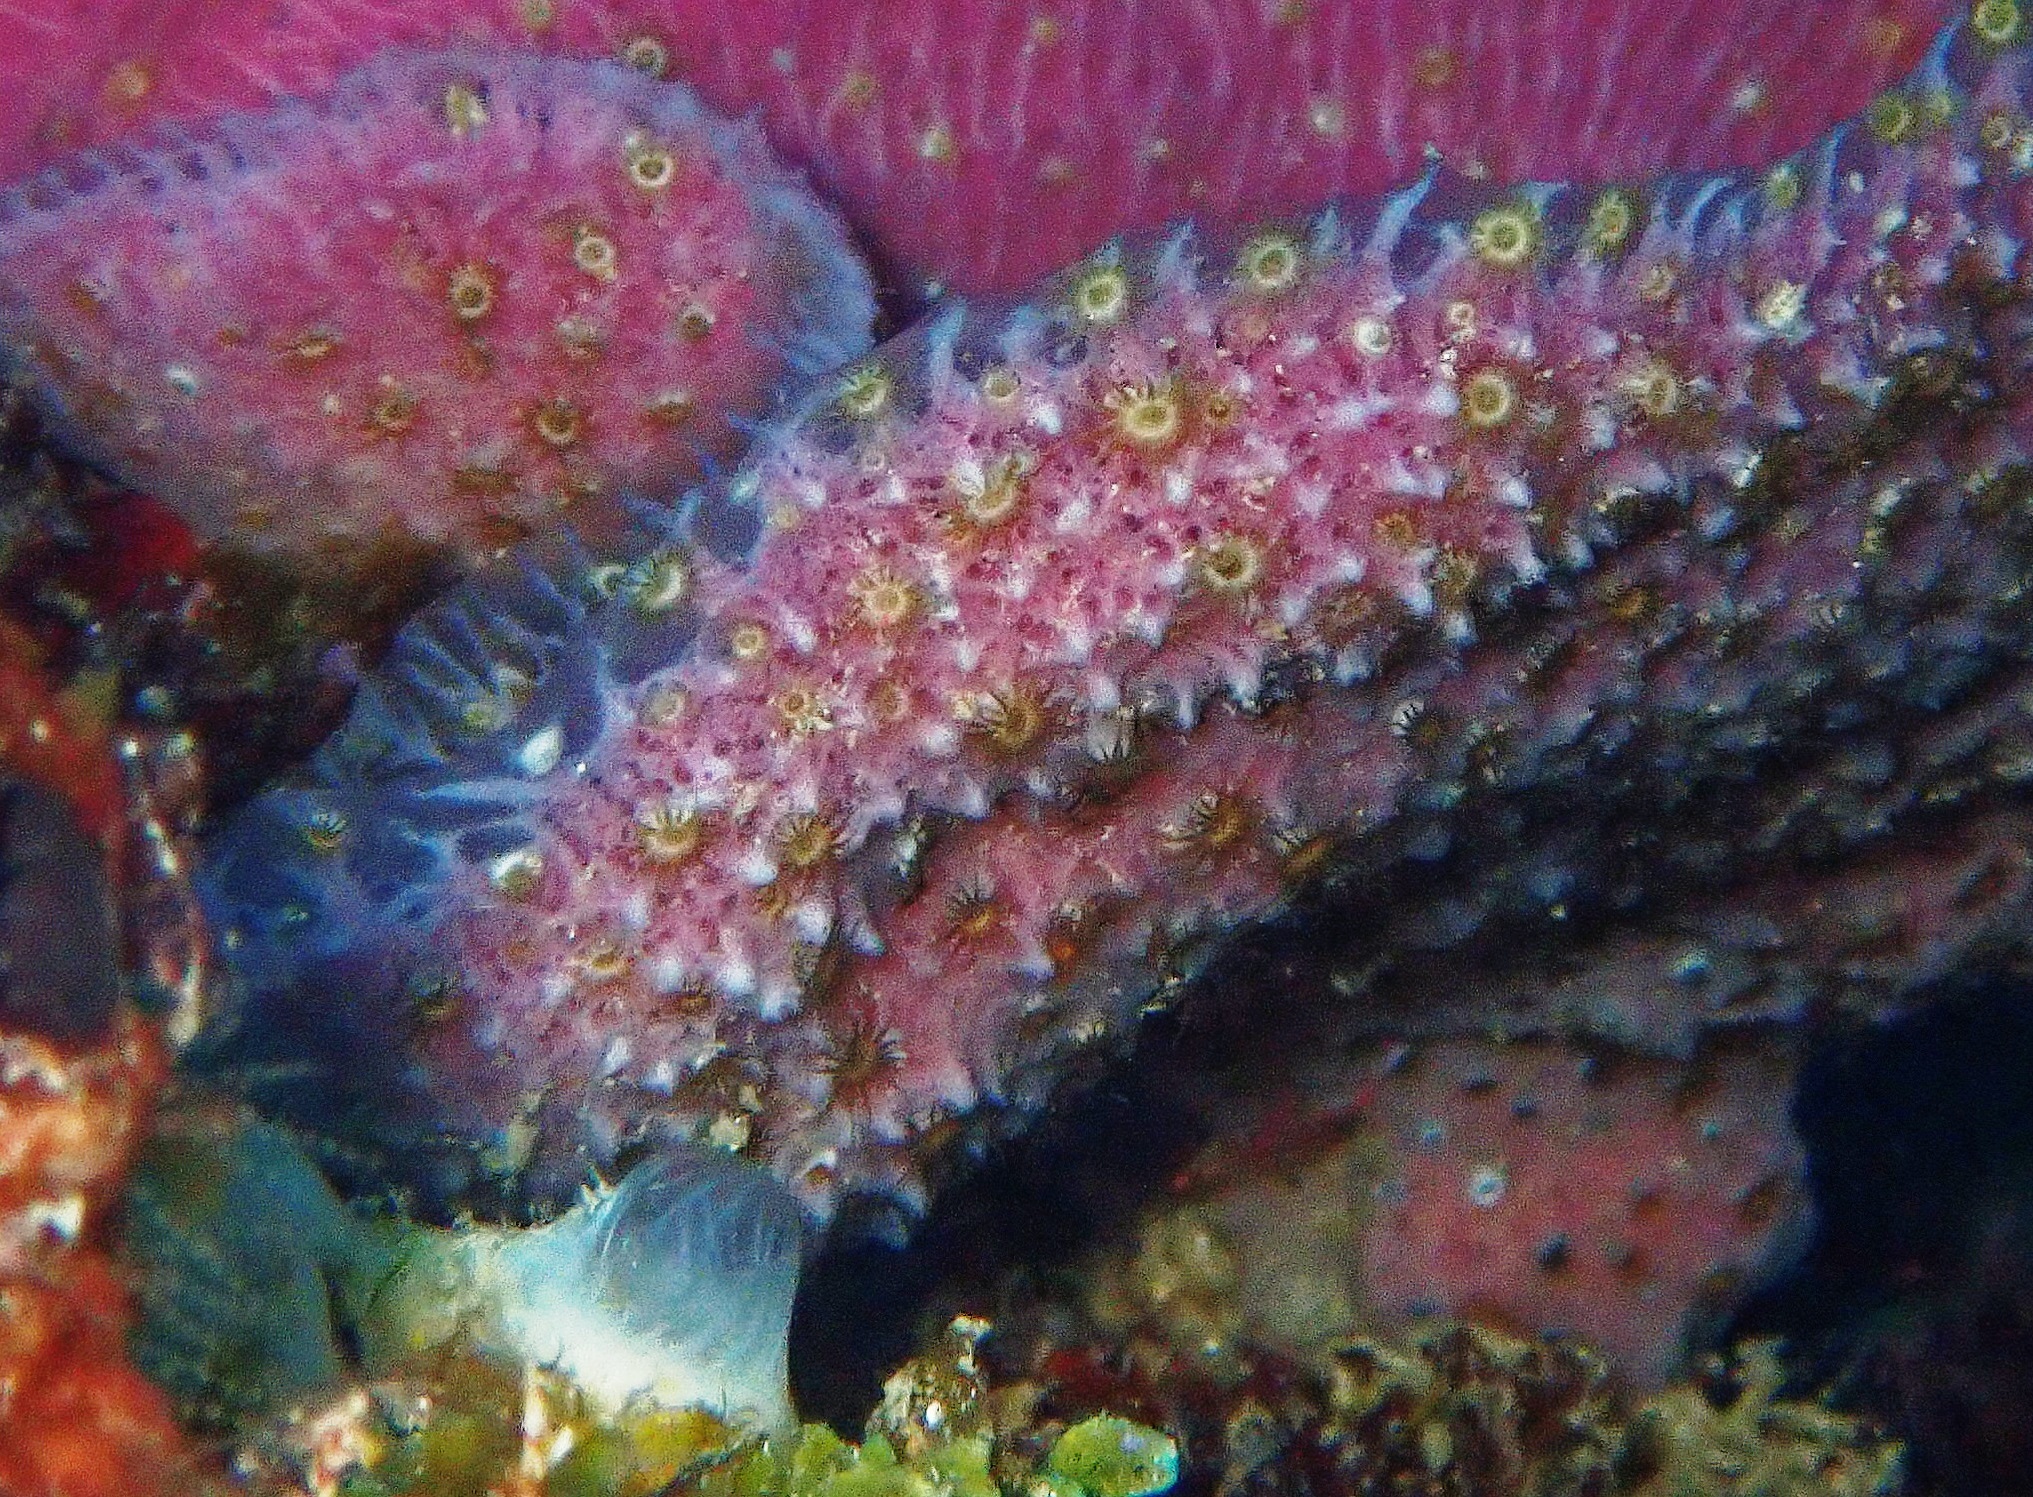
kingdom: Animalia
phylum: Cnidaria
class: Anthozoa
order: Zoantharia
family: Parazoanthidae
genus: Umimayanthus
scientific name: Umimayanthus parasiticus
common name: Sponge zoanthid
